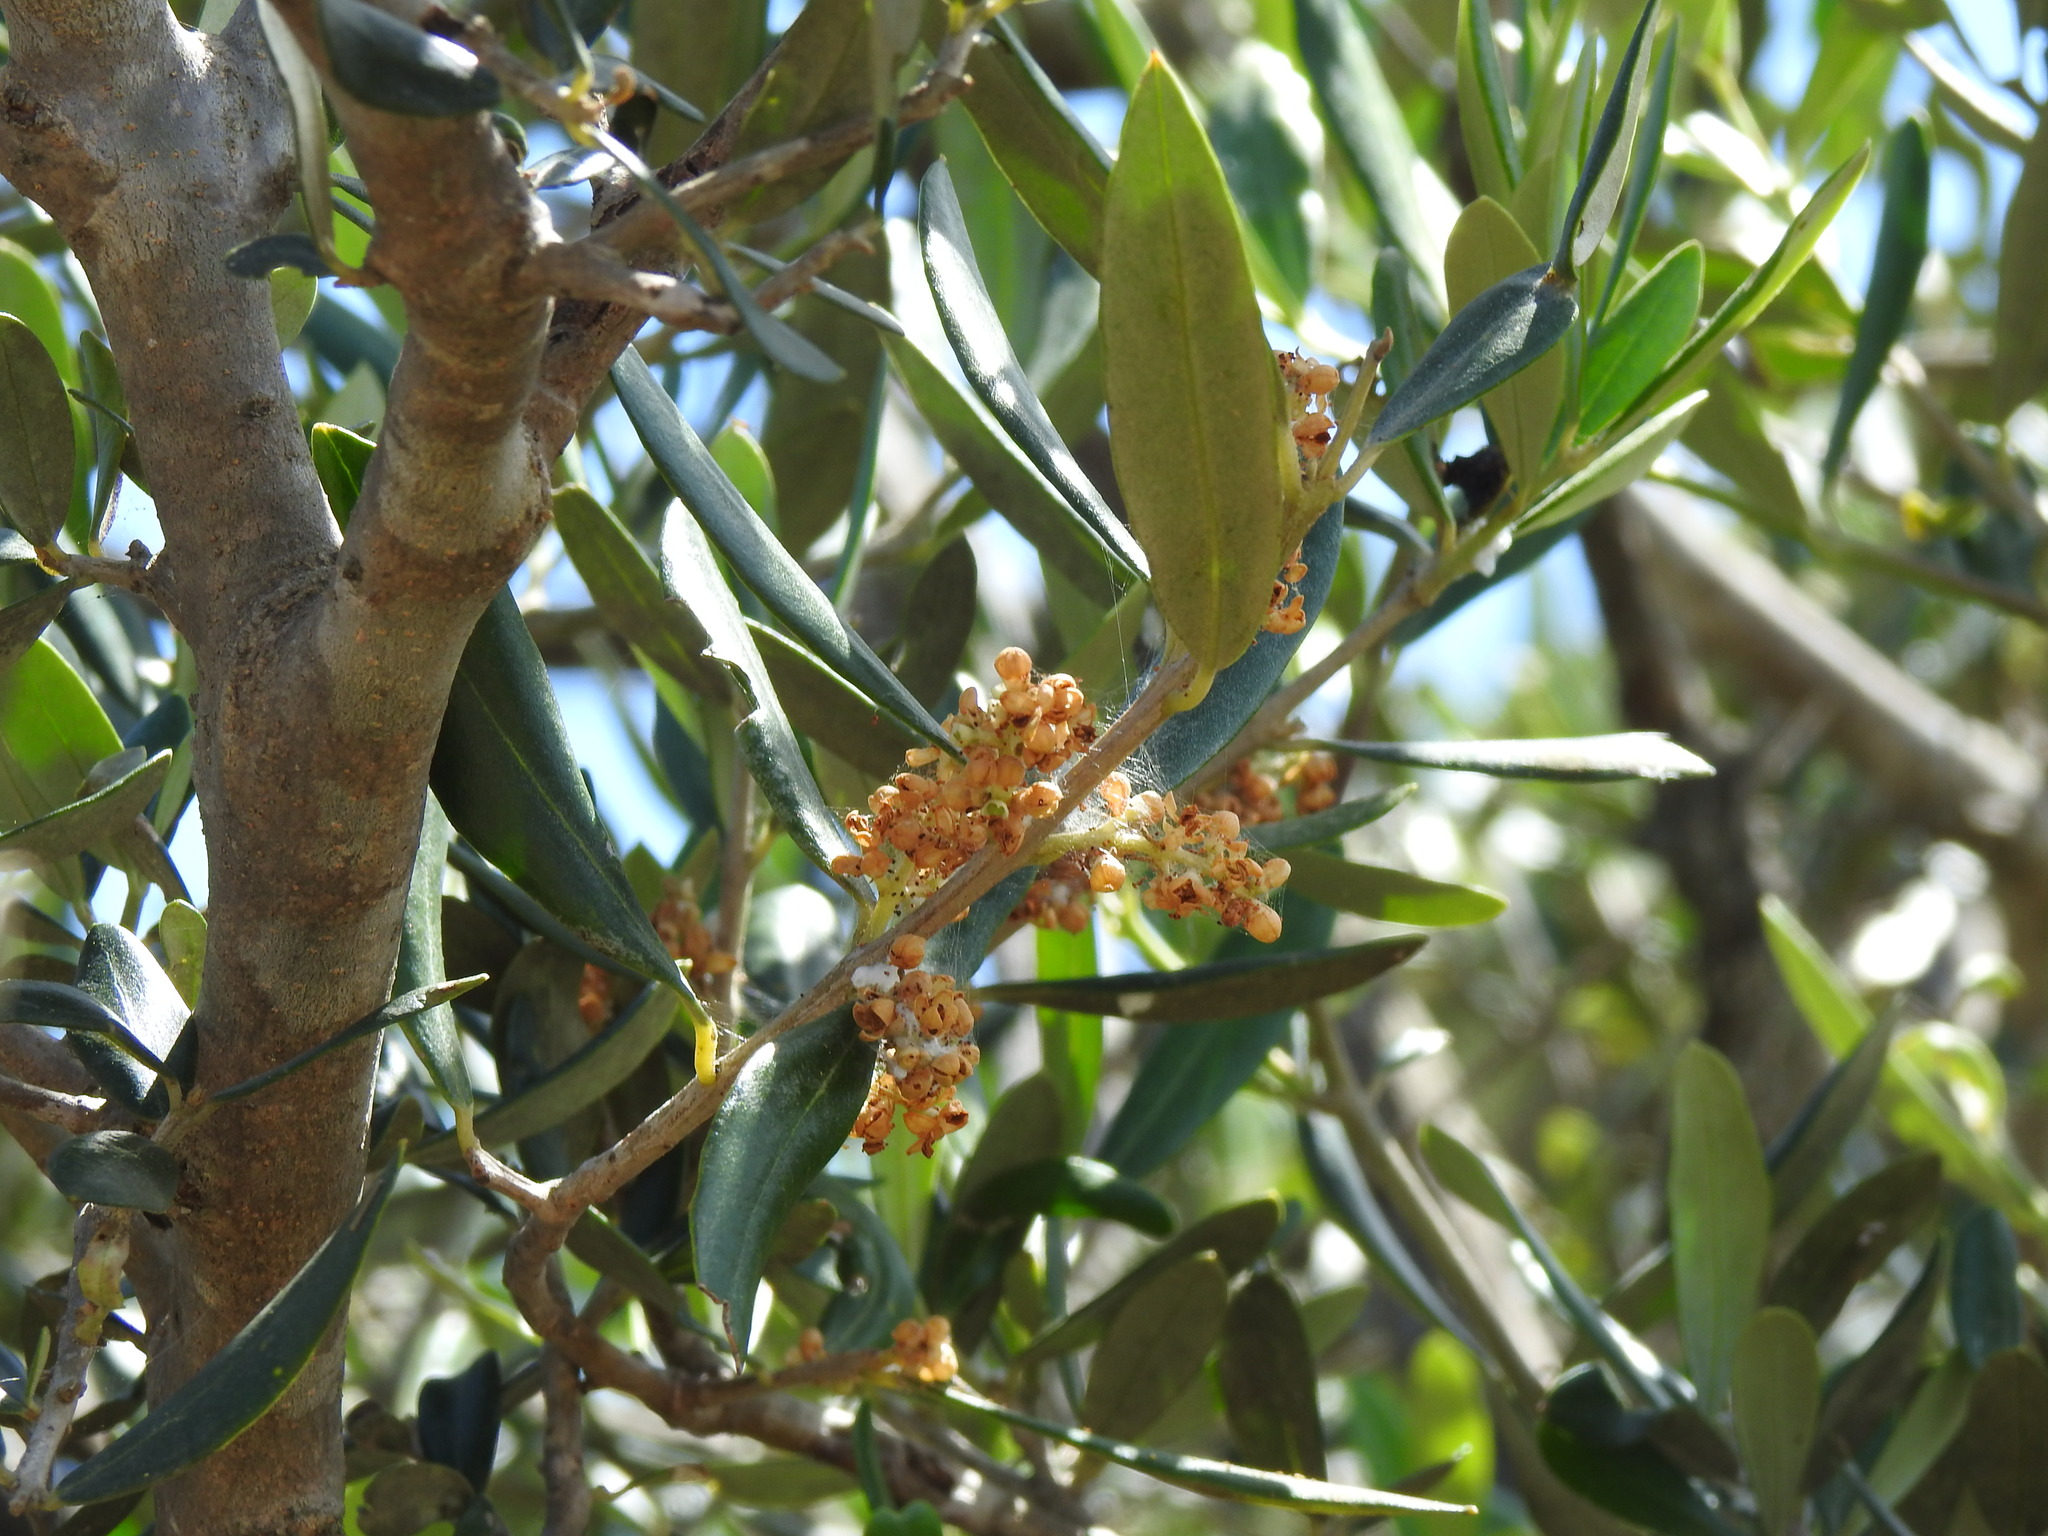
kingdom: Plantae
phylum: Tracheophyta
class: Magnoliopsida
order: Lamiales
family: Oleaceae
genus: Olea
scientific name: Olea europaea
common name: Olive
